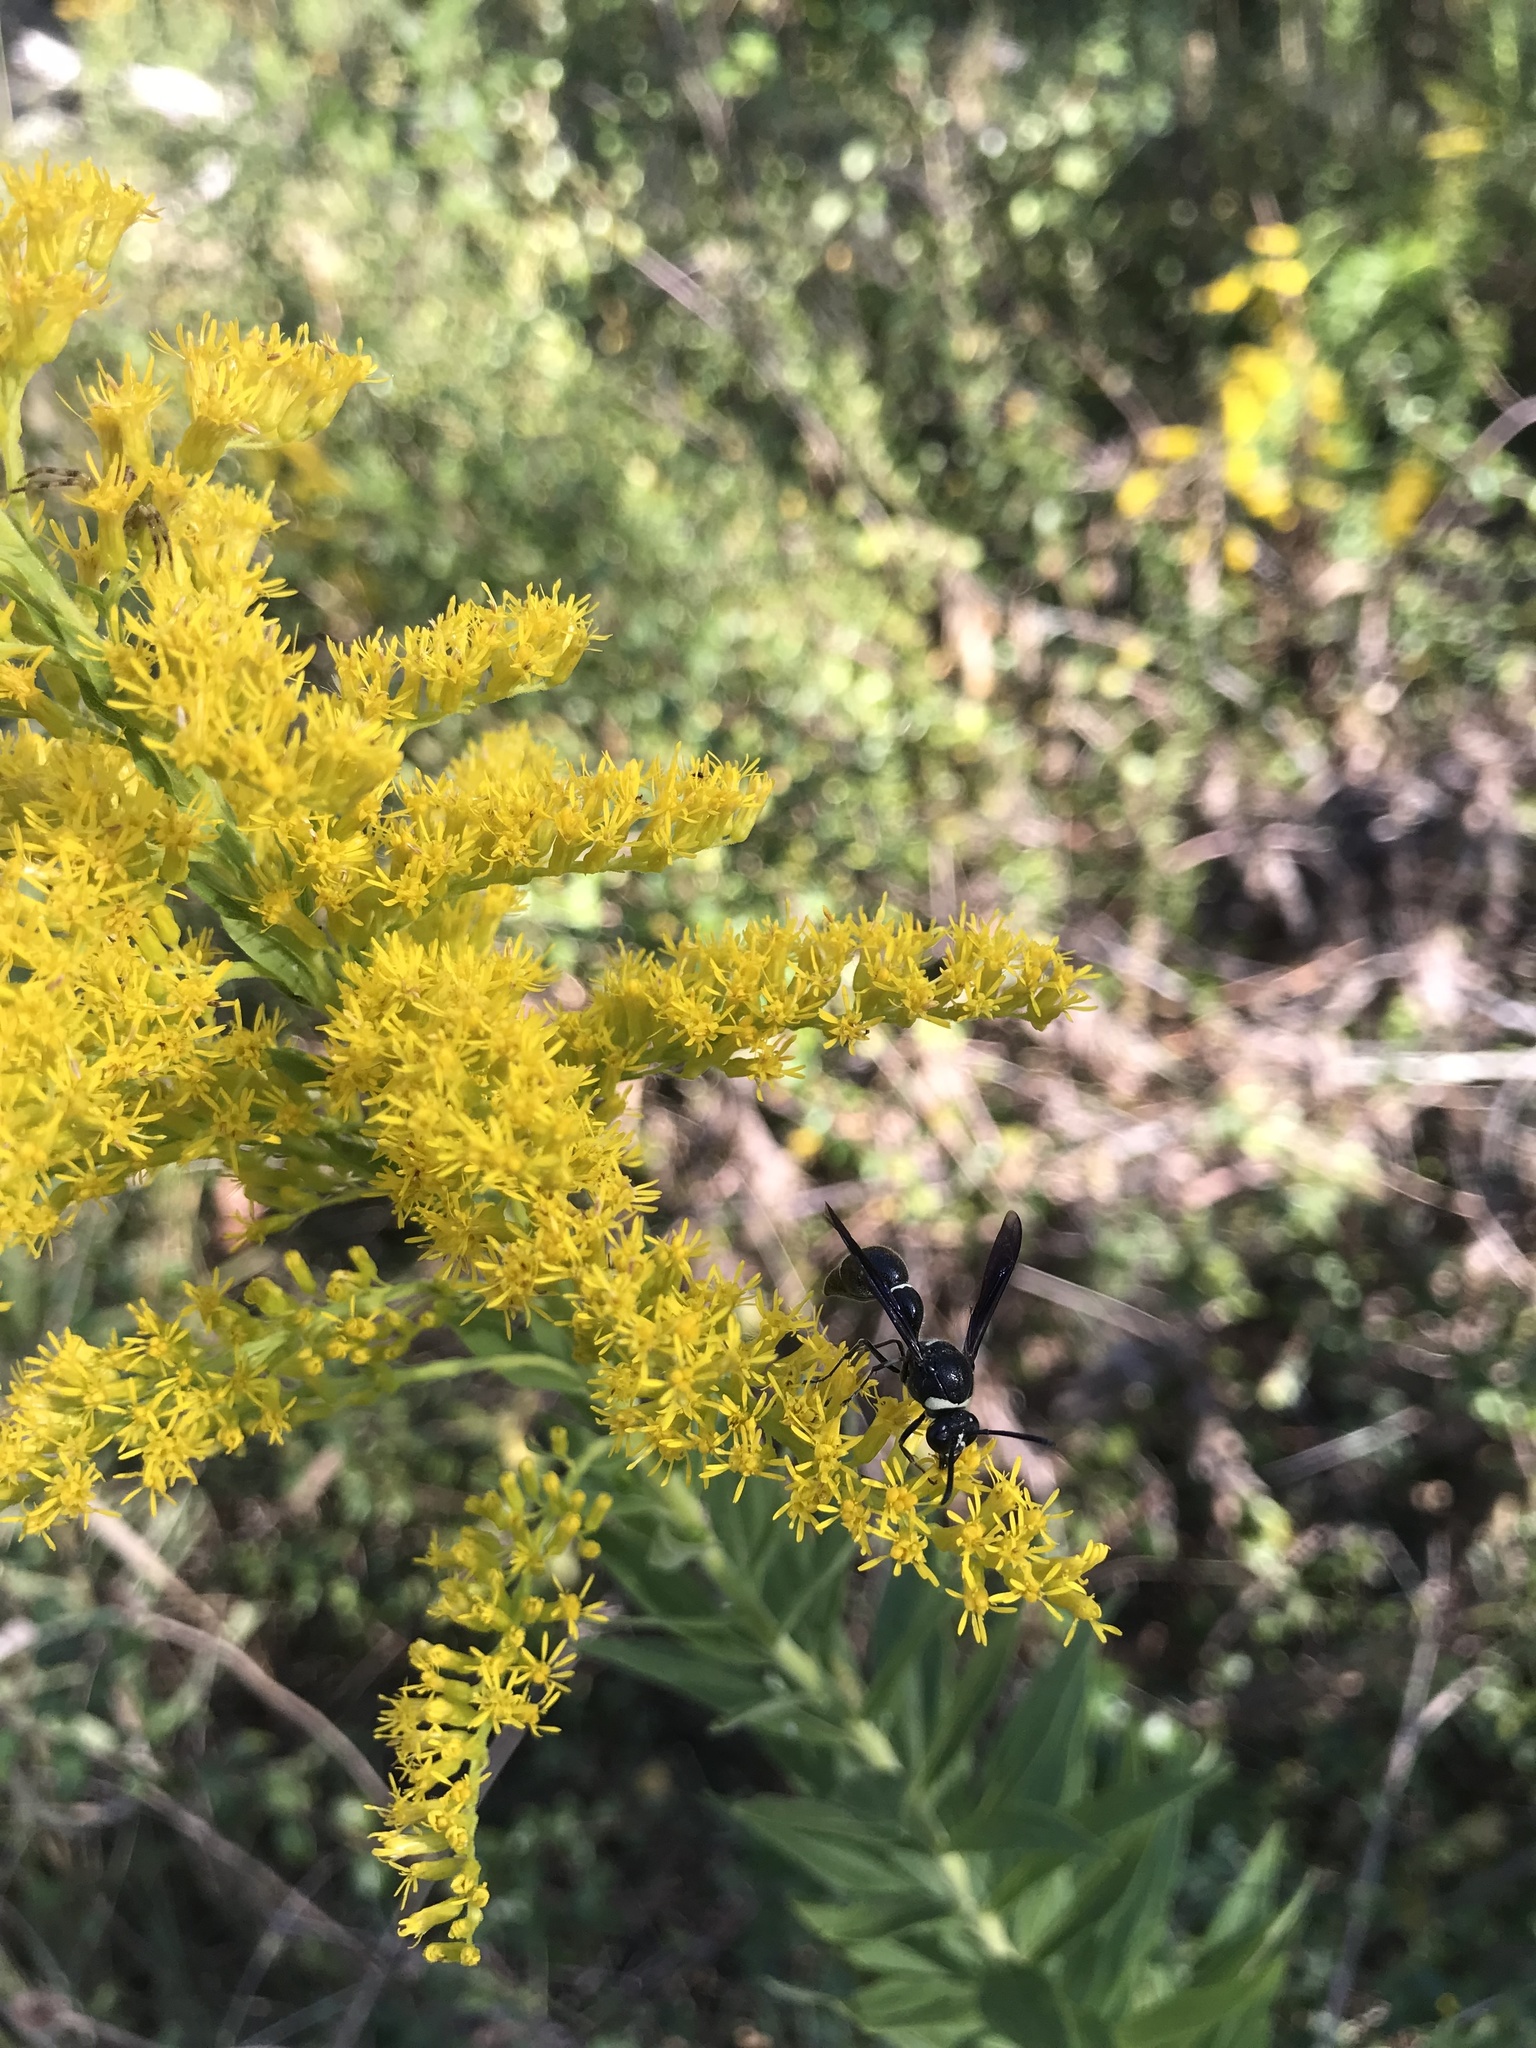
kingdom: Animalia
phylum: Arthropoda
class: Insecta
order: Hymenoptera
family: Vespidae
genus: Eumenes
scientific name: Eumenes fraternus
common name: Fraternal potter wasp
